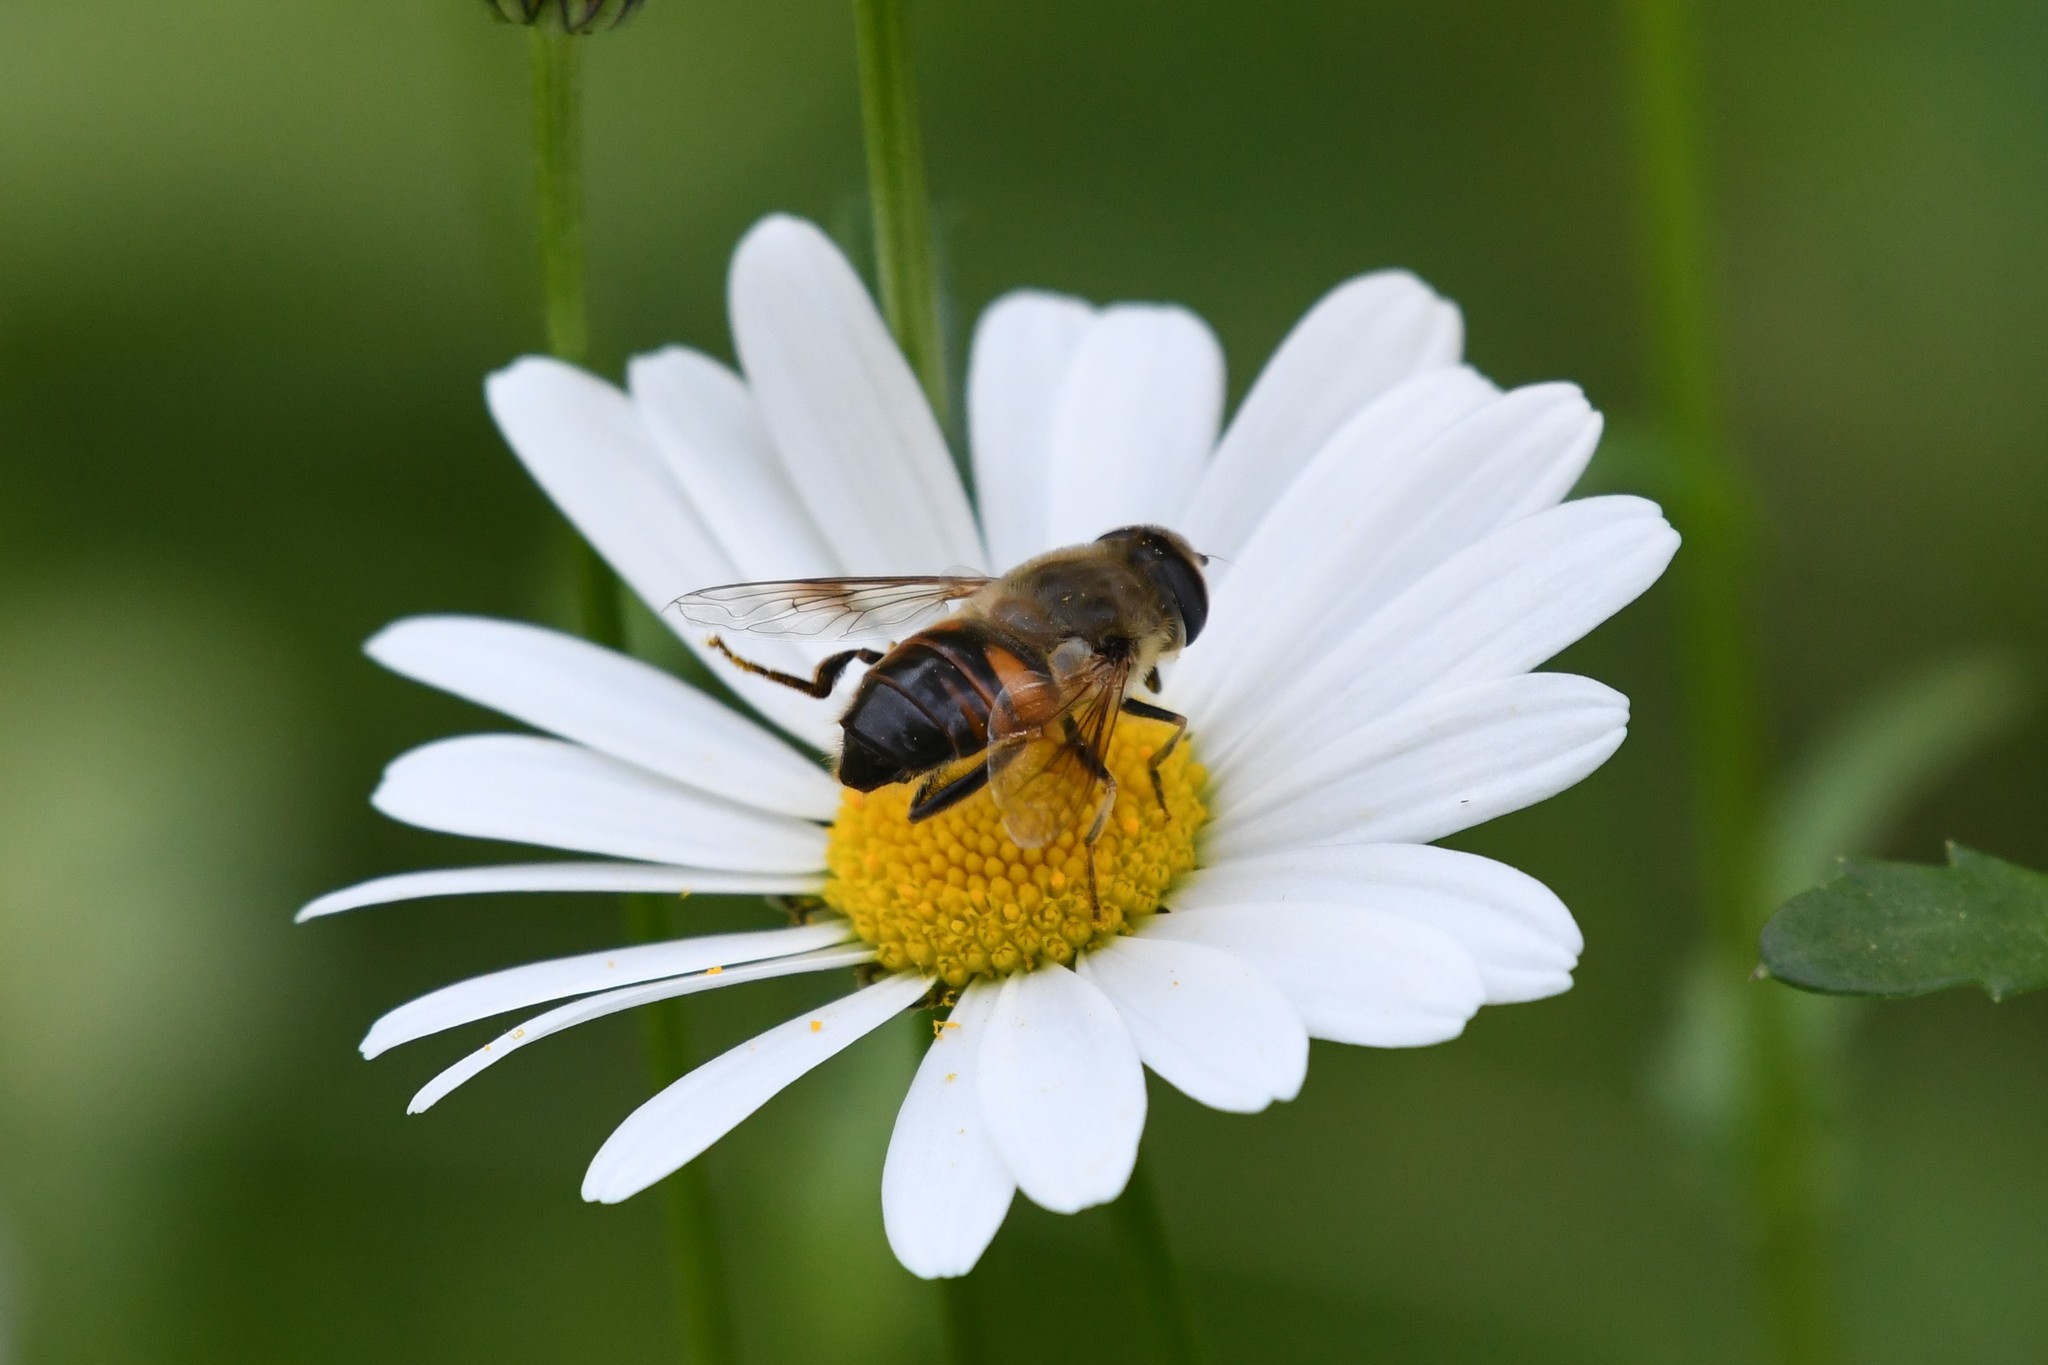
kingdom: Animalia
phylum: Arthropoda
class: Insecta
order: Diptera
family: Syrphidae
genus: Eristalis
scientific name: Eristalis tenax
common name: Drone fly
